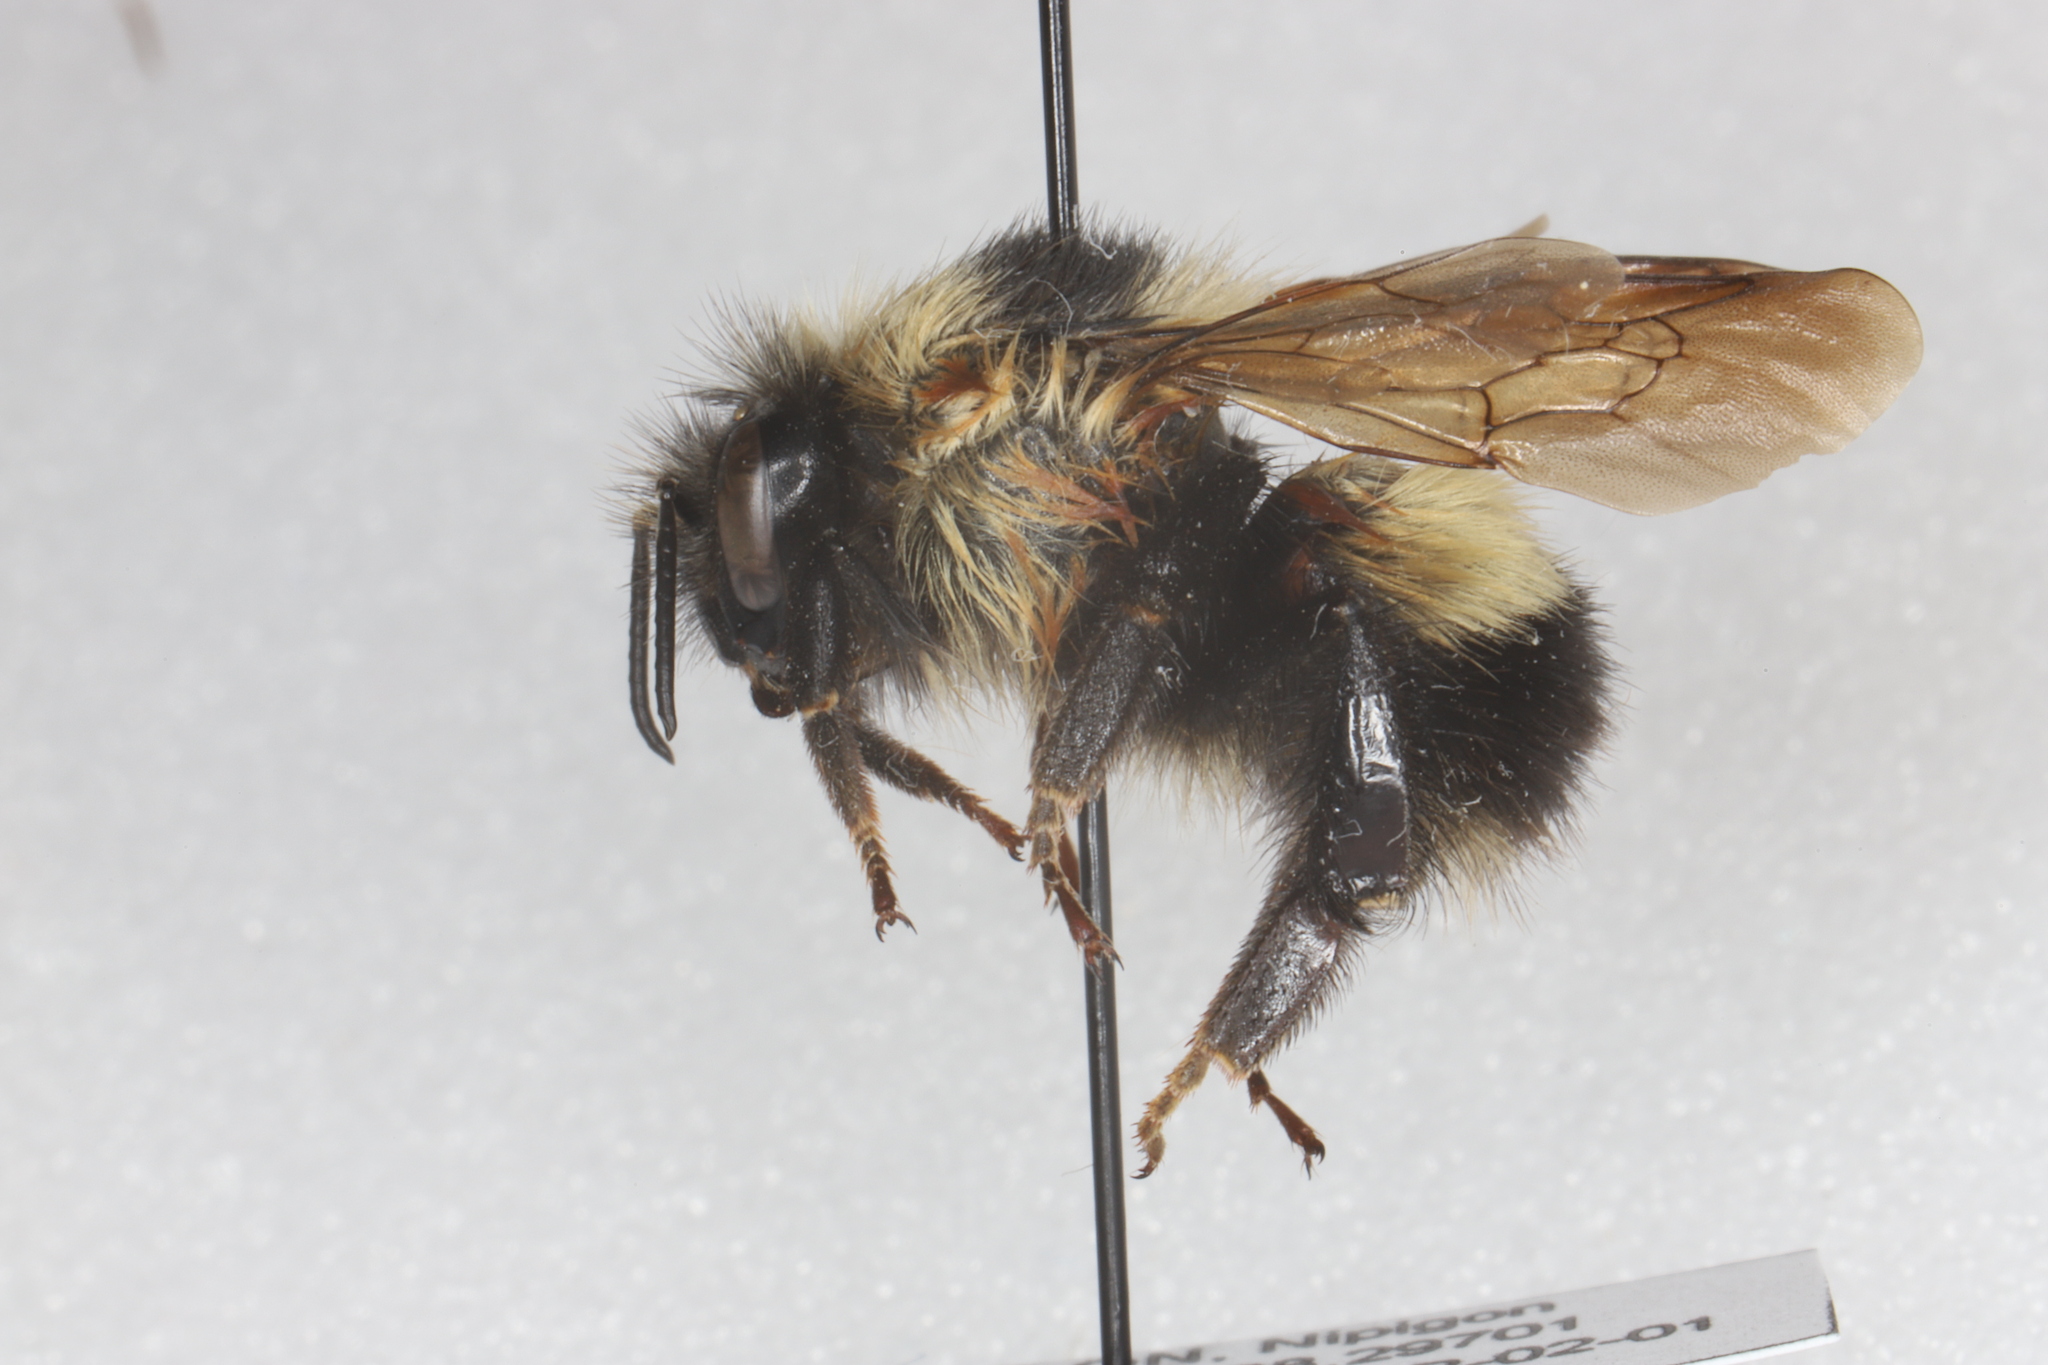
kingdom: Animalia
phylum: Arthropoda
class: Insecta
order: Hymenoptera
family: Apidae
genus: Bombus
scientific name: Bombus sandersoni
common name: Sanderson bumble bee
